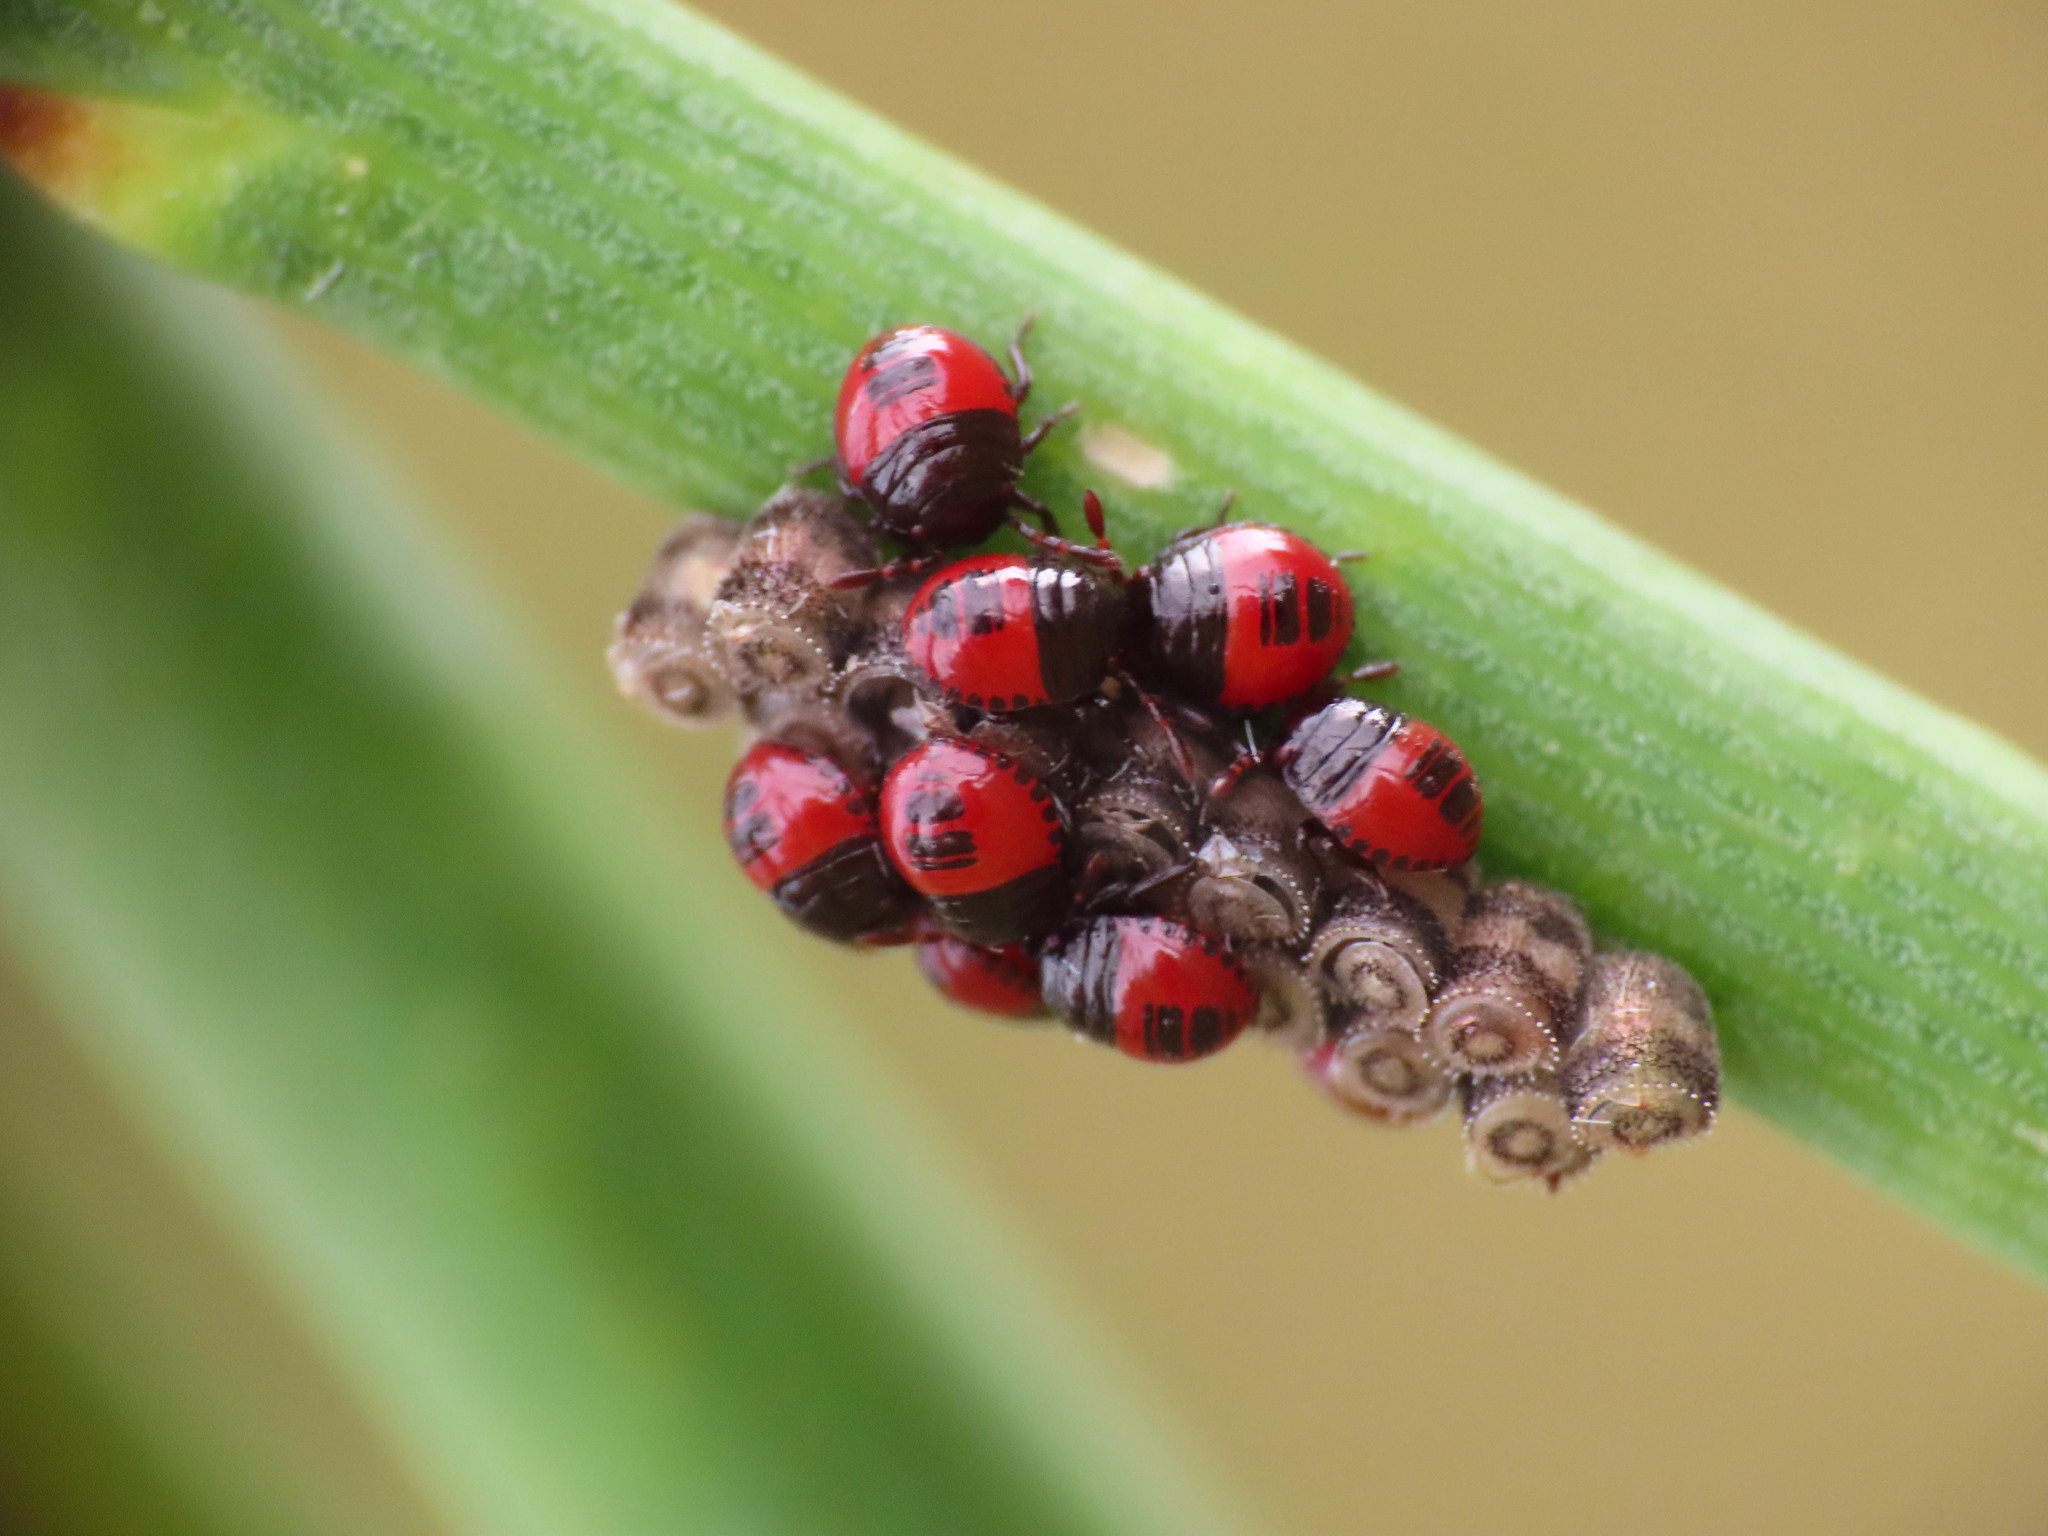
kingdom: Animalia
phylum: Arthropoda
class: Insecta
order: Hemiptera
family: Pentatomidae
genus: Piezodorus
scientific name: Piezodorus lituratus
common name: Stink bug
